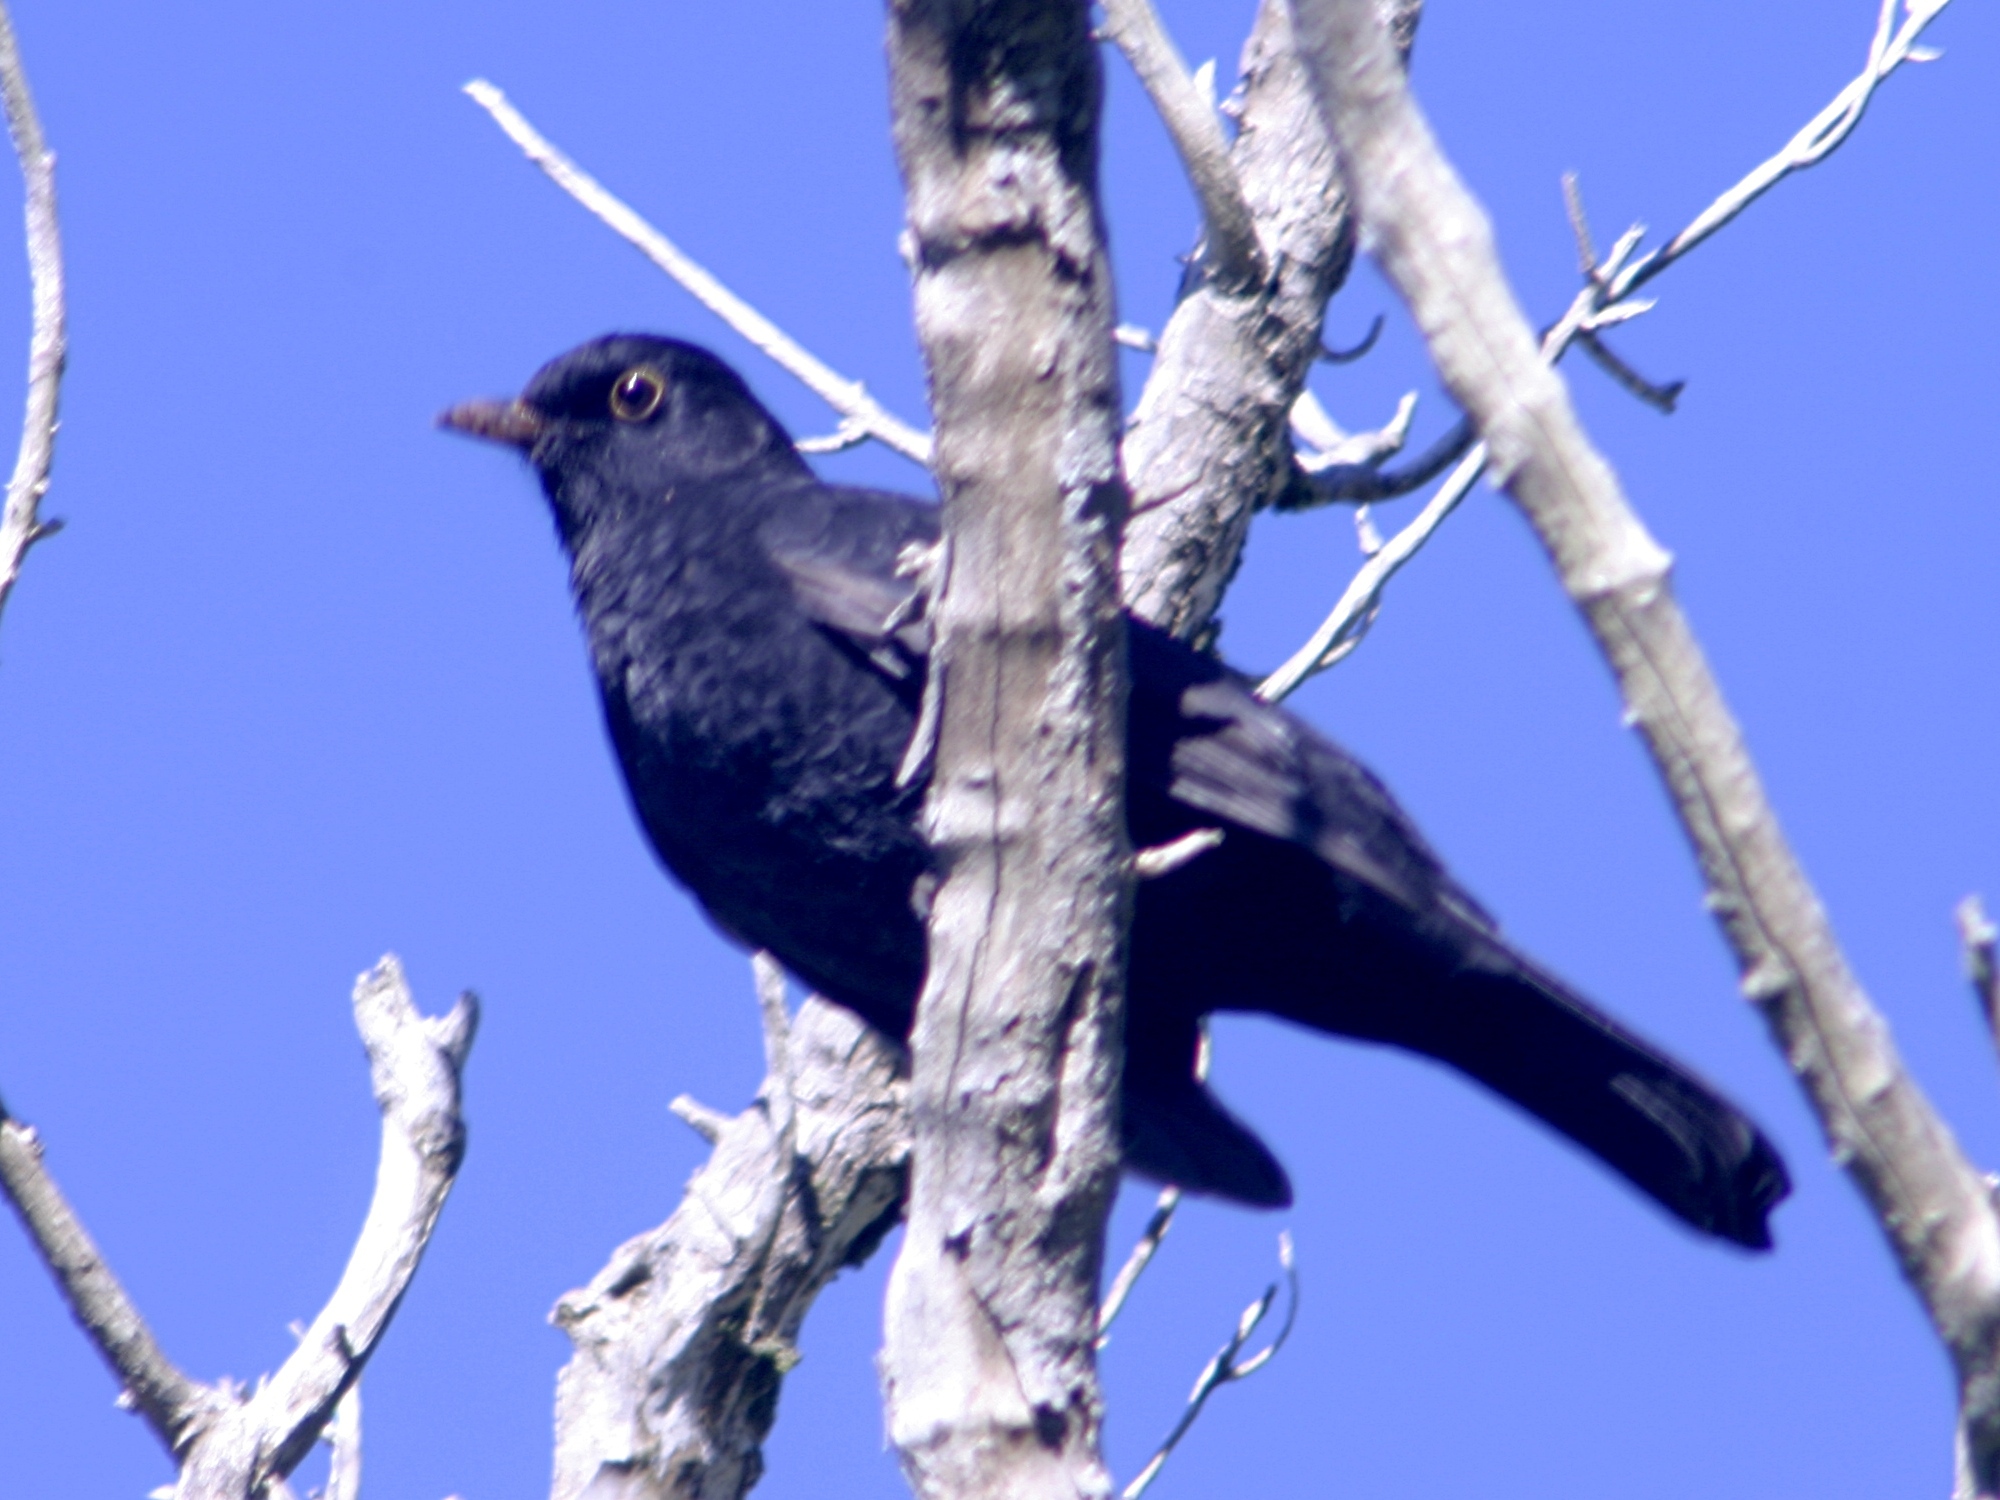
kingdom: Animalia
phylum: Chordata
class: Aves
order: Passeriformes
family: Turdidae
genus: Turdus
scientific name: Turdus merula
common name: Common blackbird
